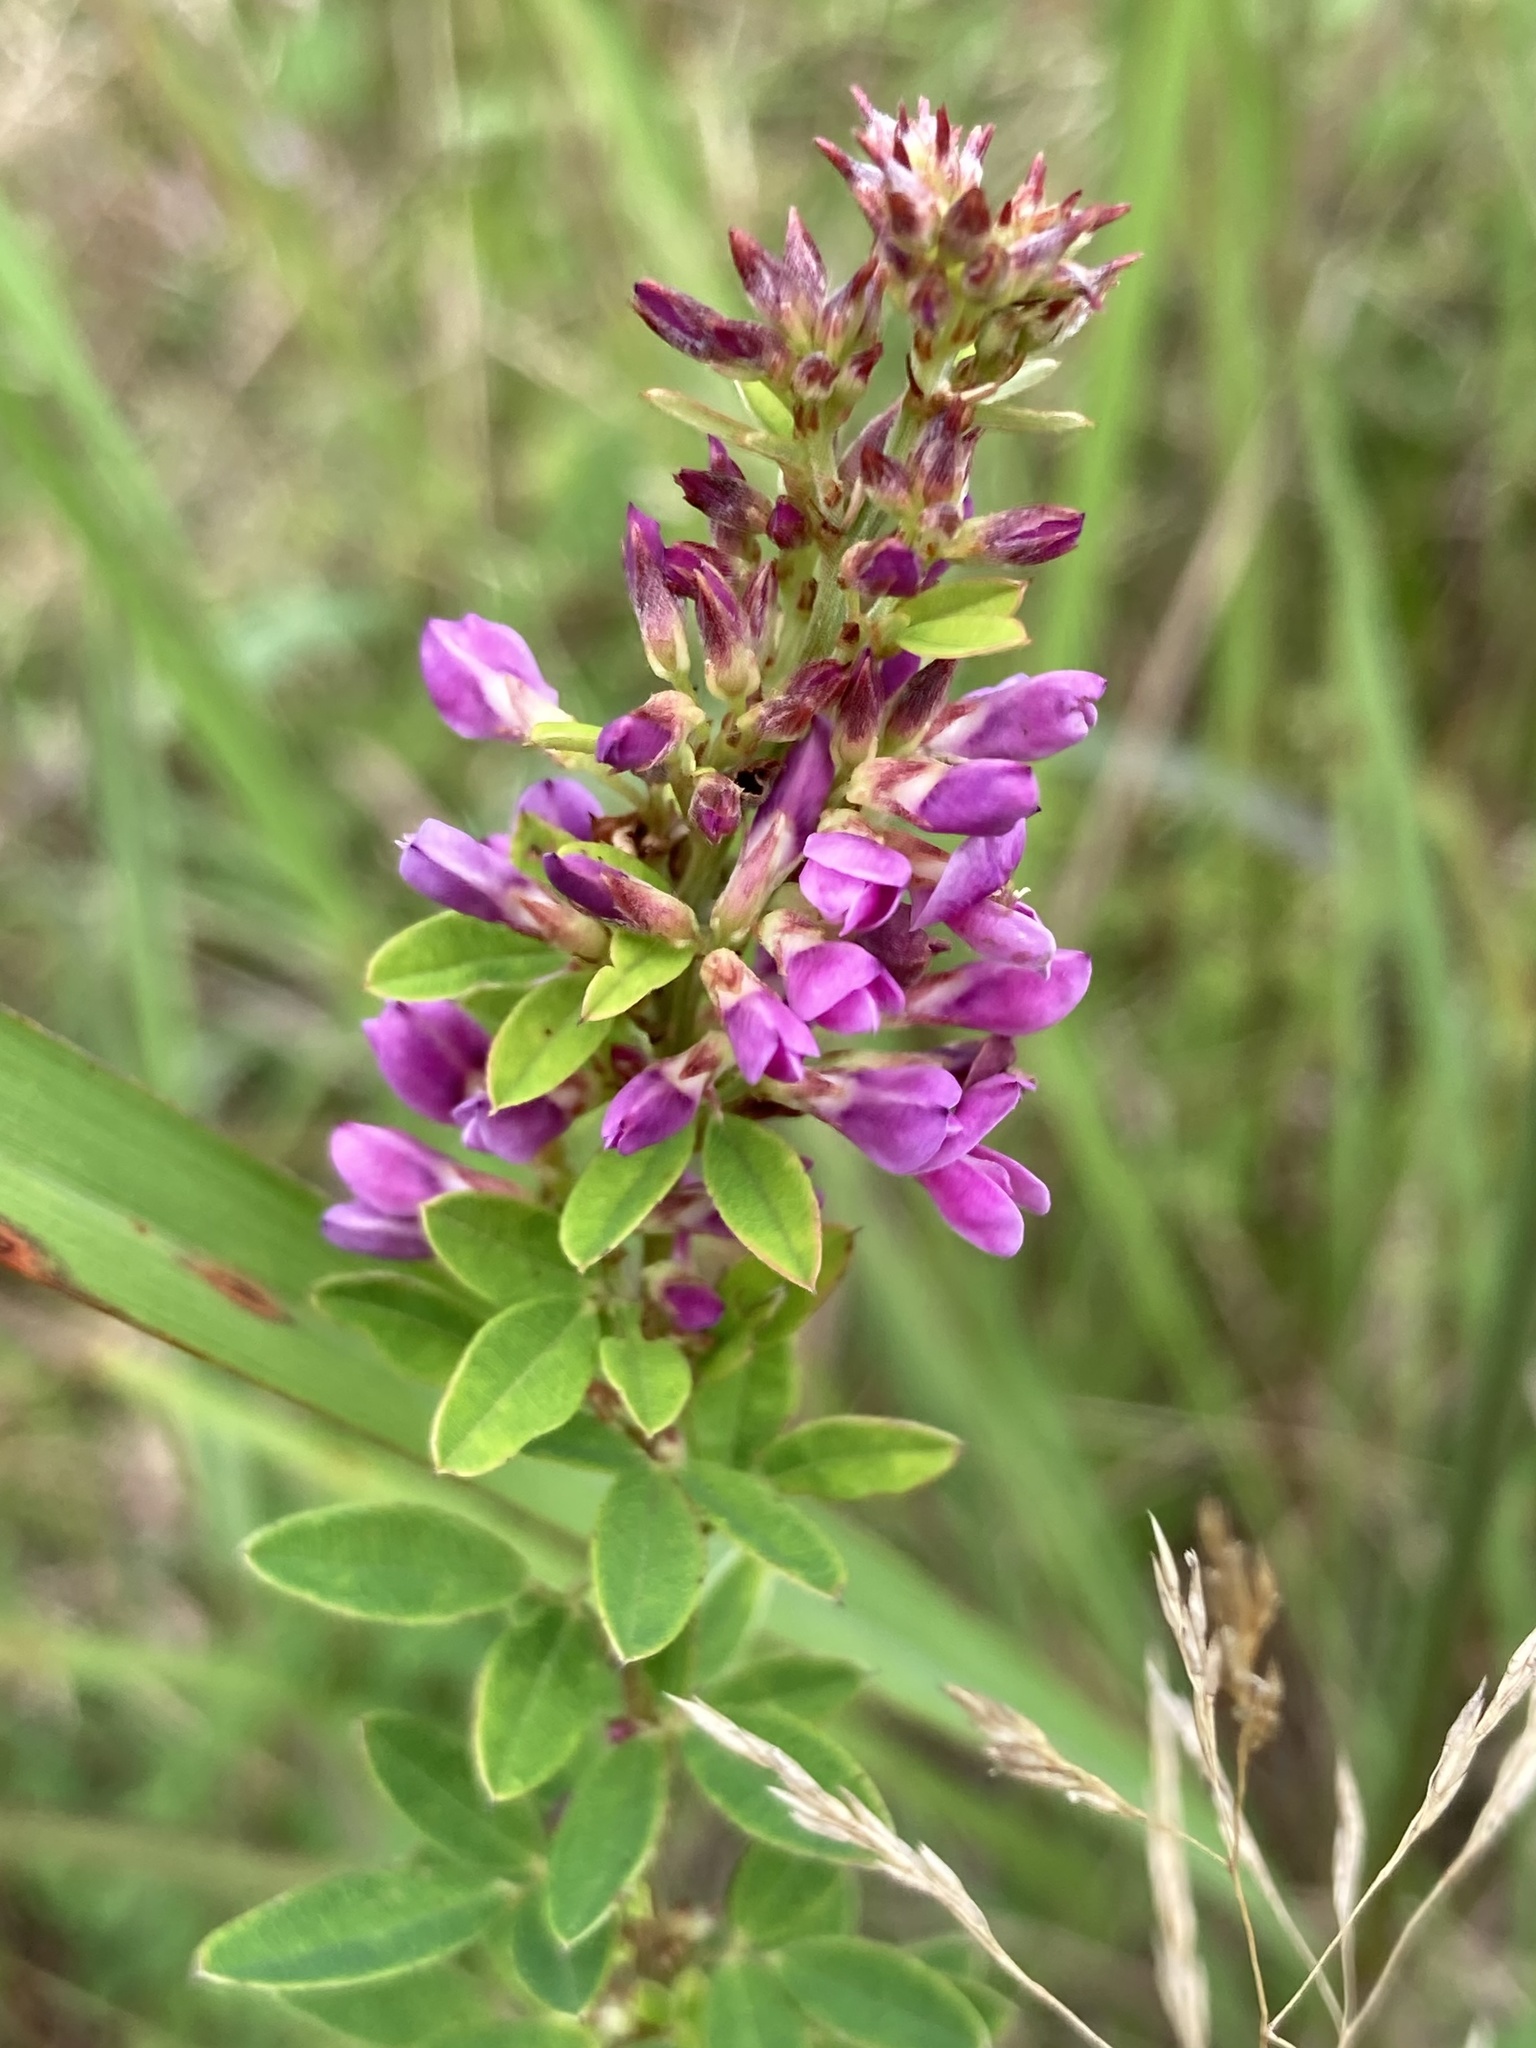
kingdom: Plantae
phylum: Tracheophyta
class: Magnoliopsida
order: Fabales
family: Fabaceae
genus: Lespedeza
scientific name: Lespedeza violacea
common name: Wand bush-clover
